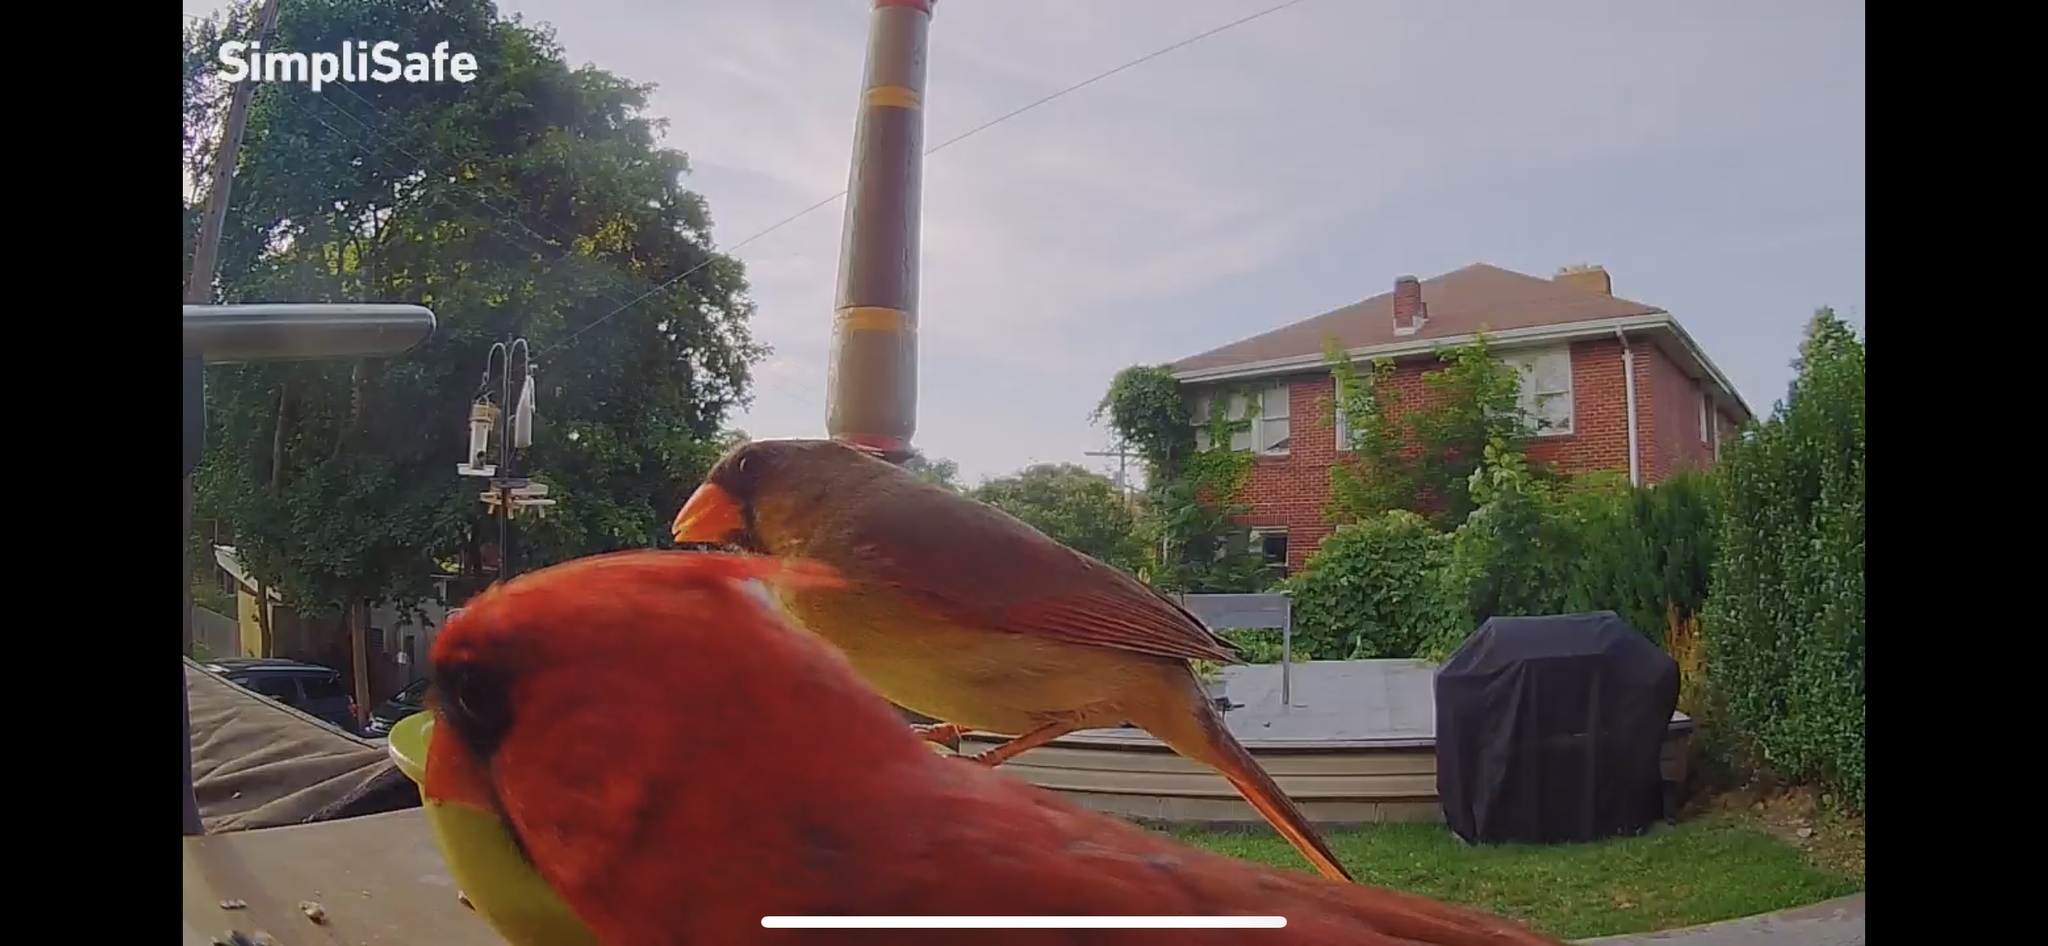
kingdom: Animalia
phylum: Chordata
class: Aves
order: Passeriformes
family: Cardinalidae
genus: Cardinalis
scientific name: Cardinalis cardinalis
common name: Northern cardinal
